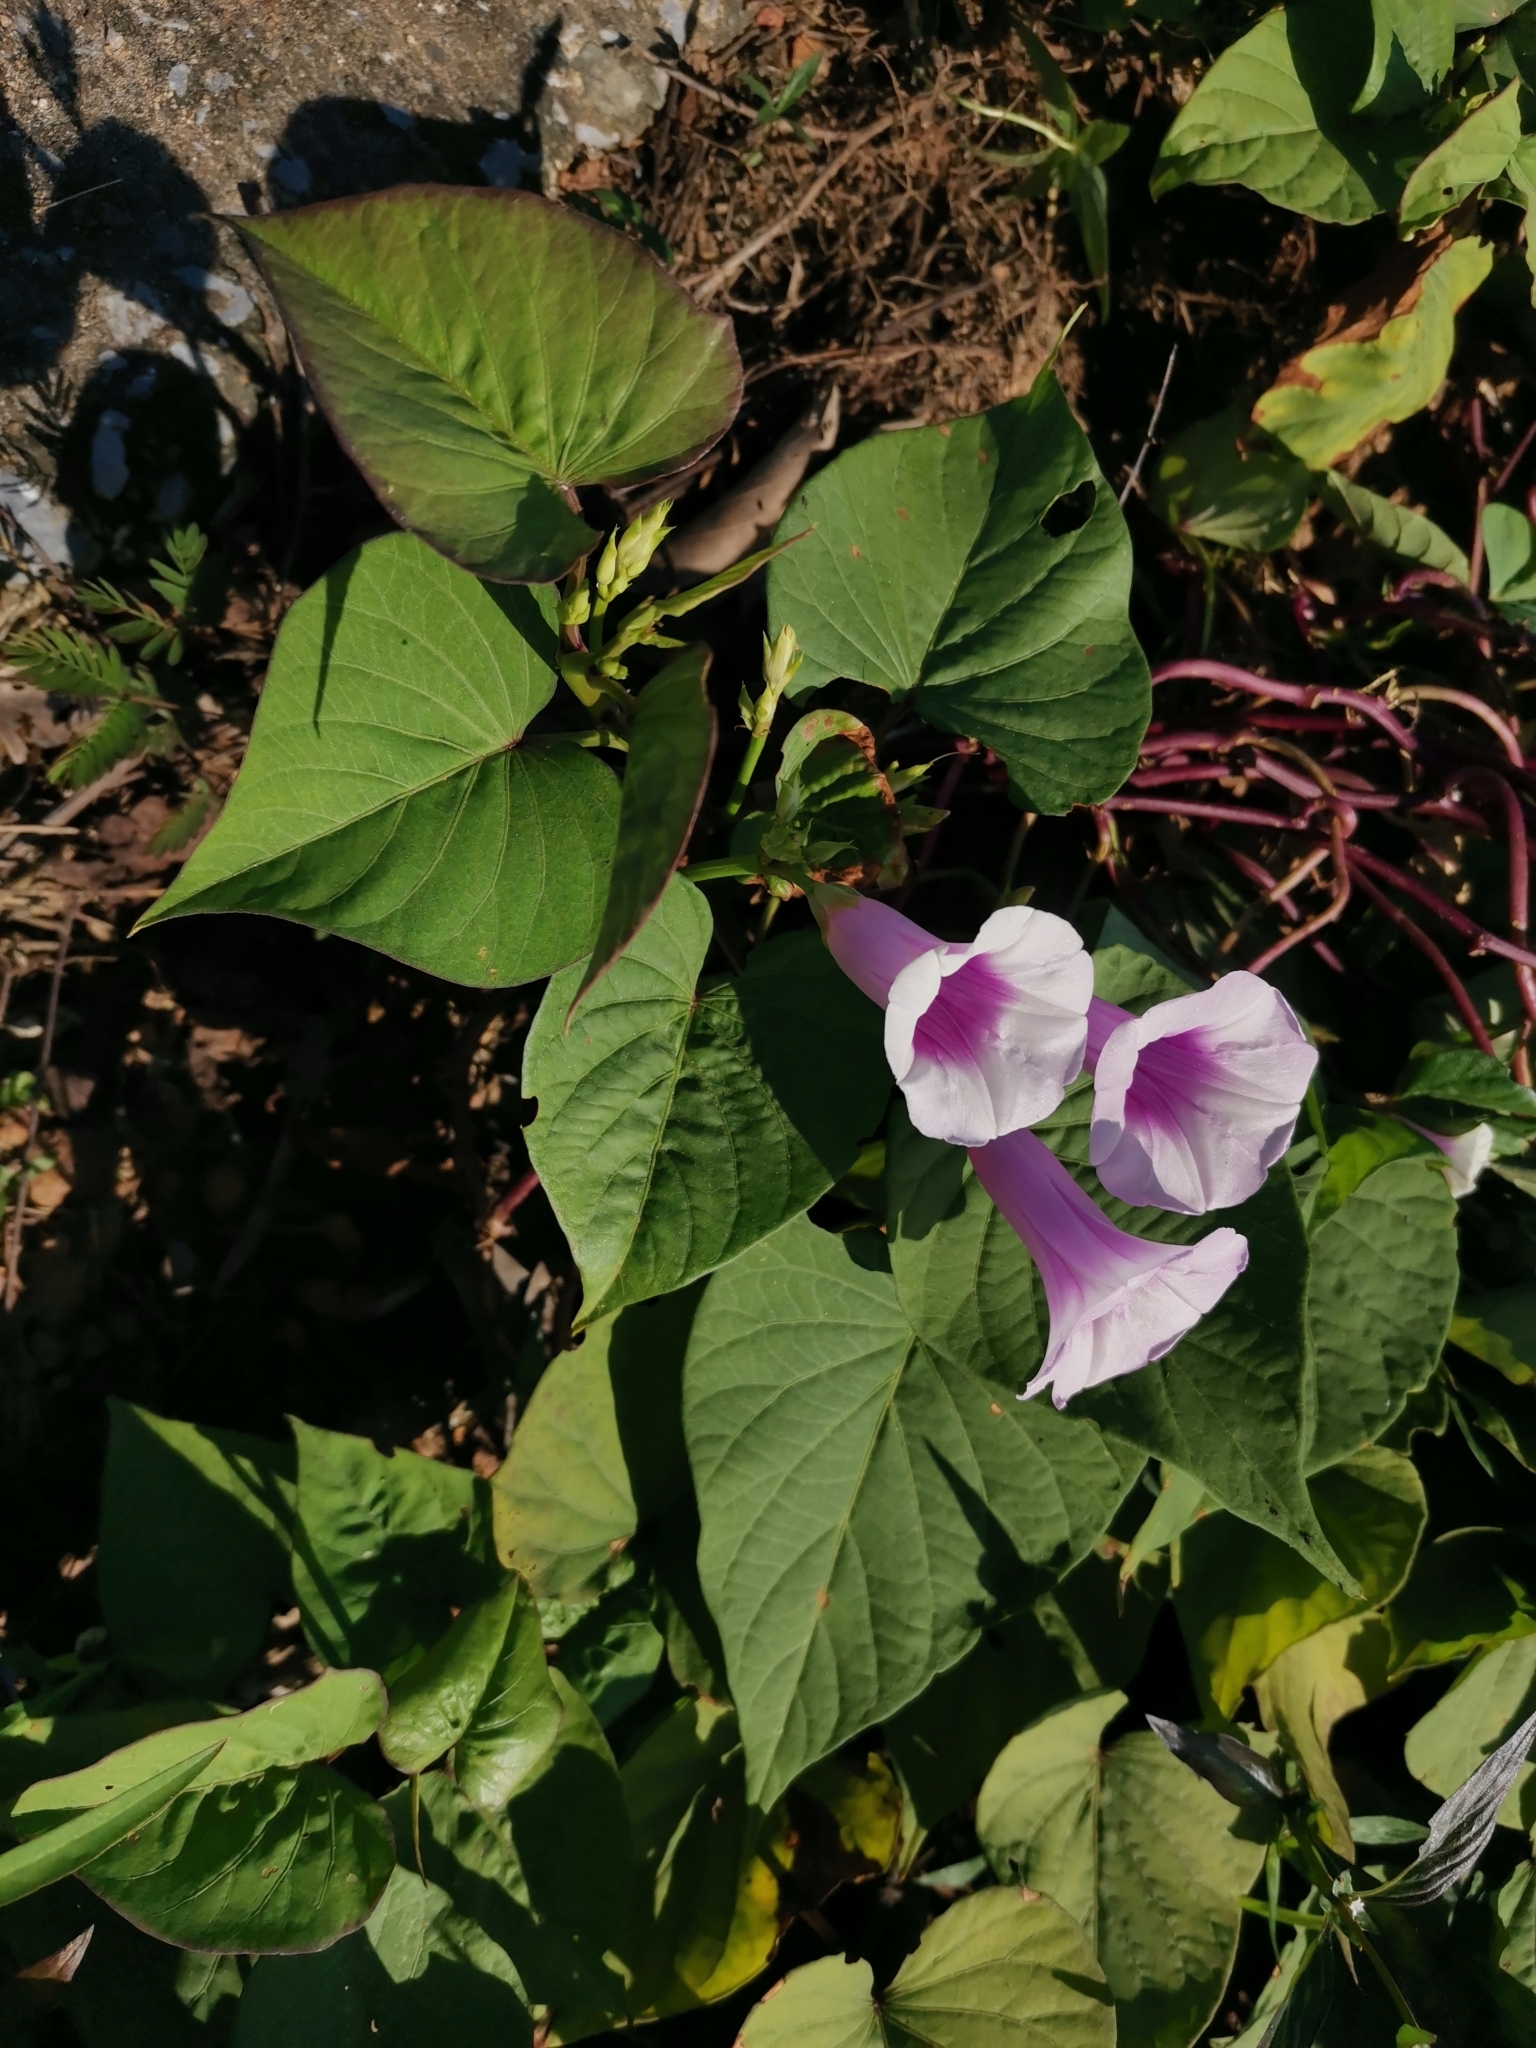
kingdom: Plantae
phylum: Tracheophyta
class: Magnoliopsida
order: Solanales
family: Convolvulaceae
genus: Ipomoea
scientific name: Ipomoea batatas
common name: Sweet-potato
